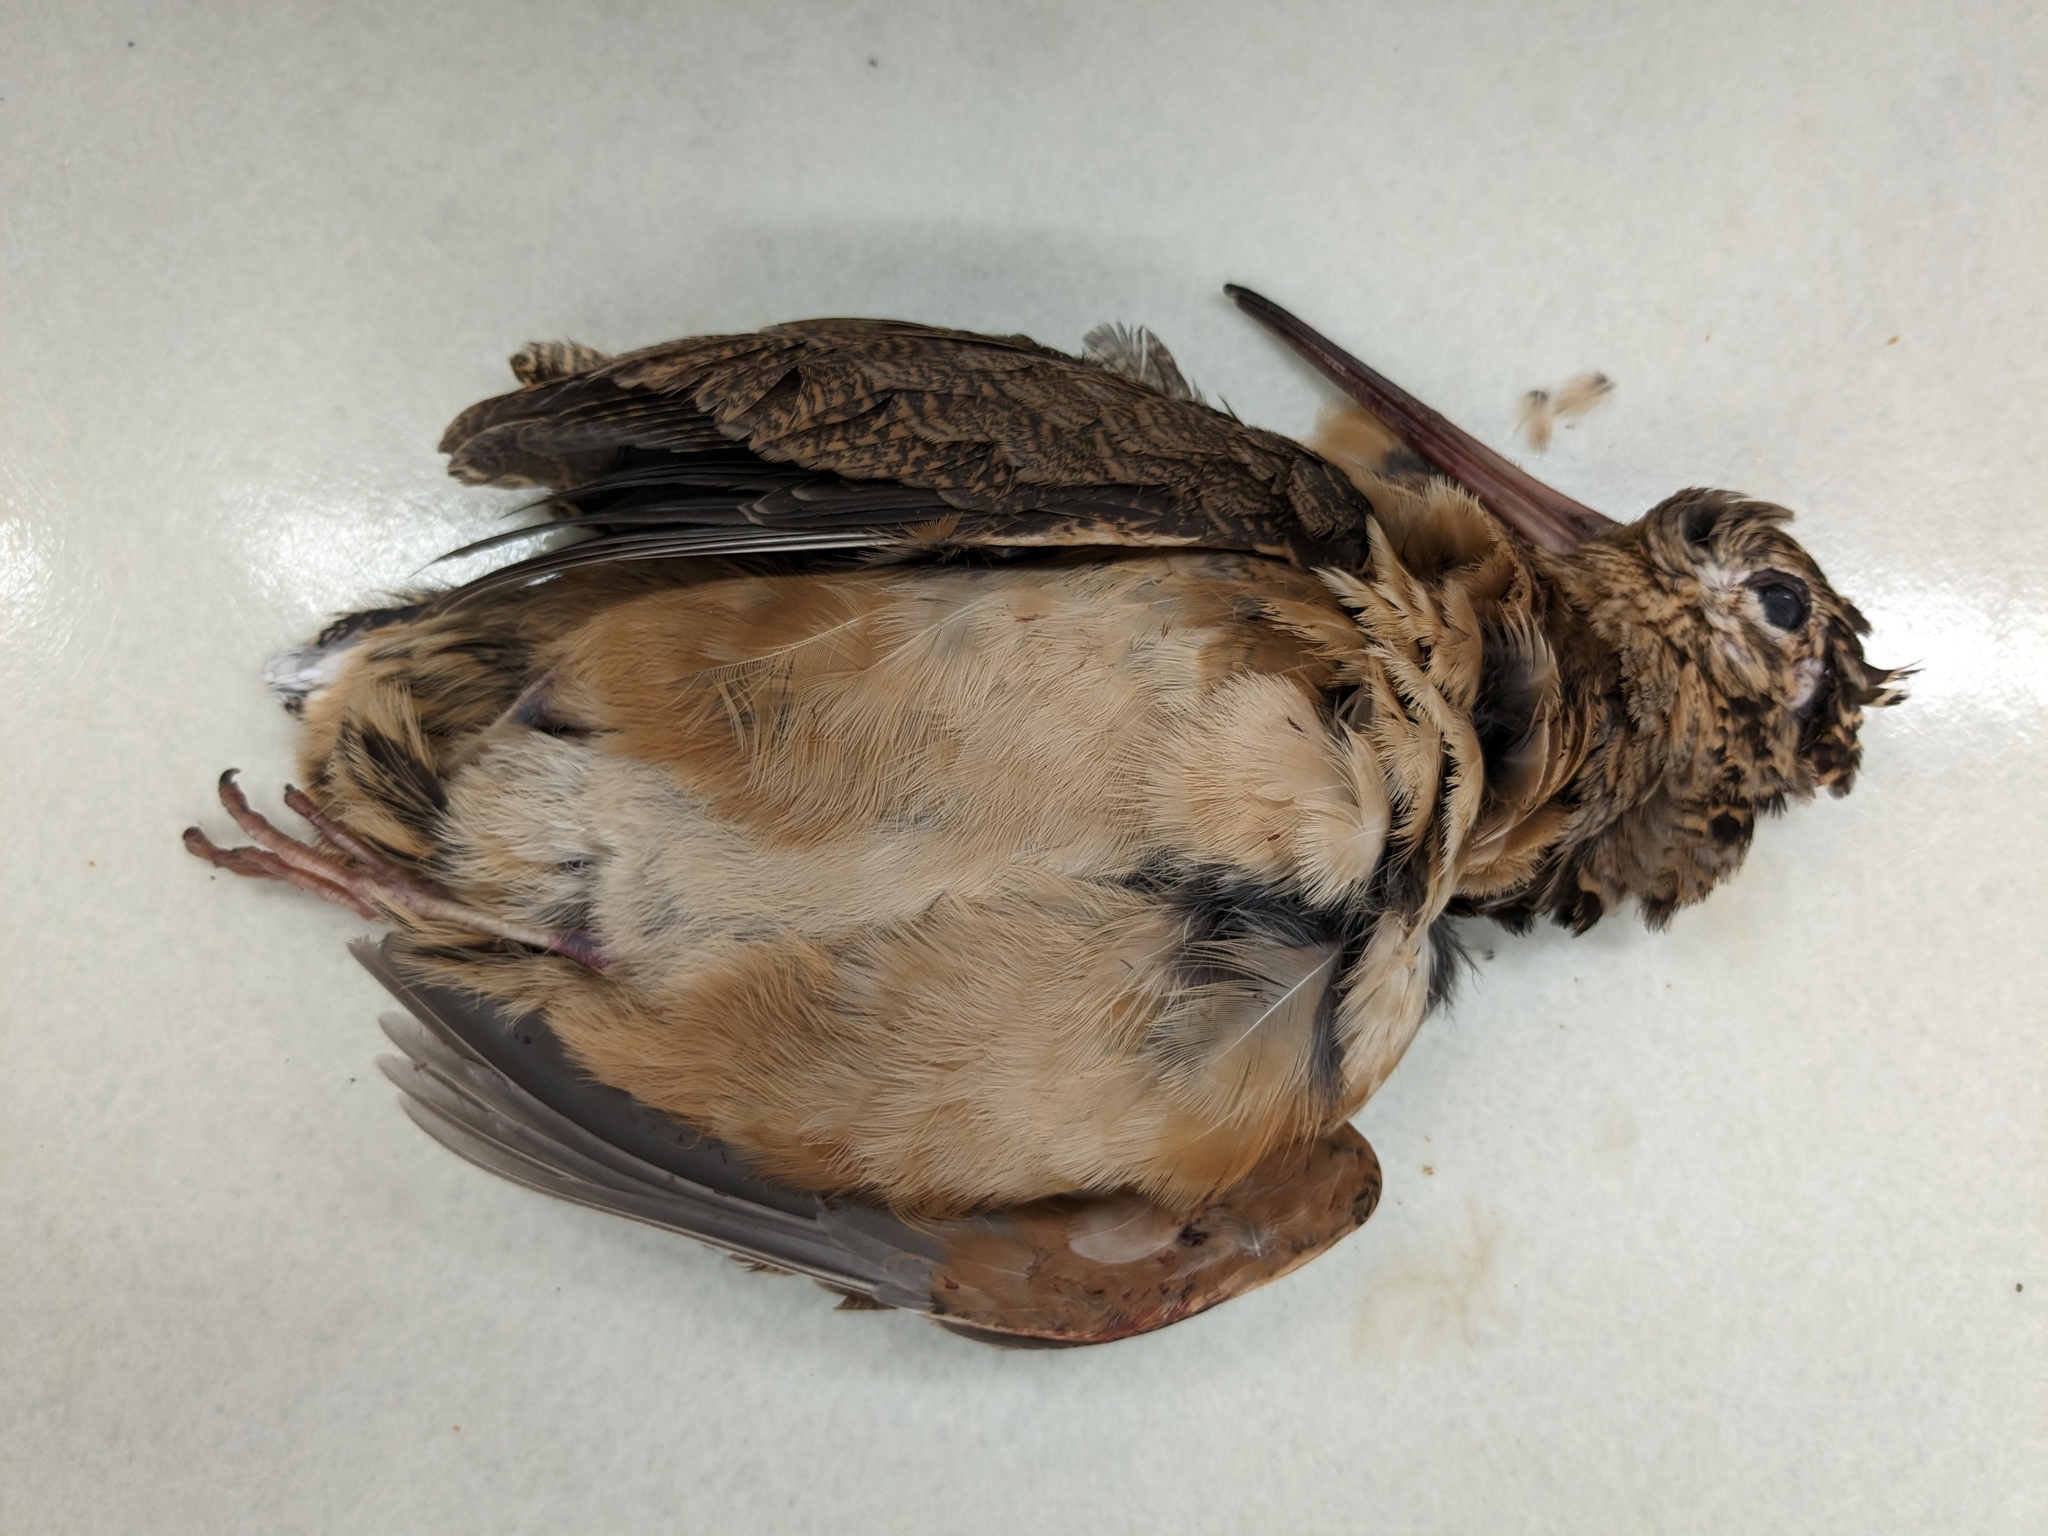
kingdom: Animalia
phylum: Chordata
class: Aves
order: Charadriiformes
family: Scolopacidae
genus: Scolopax
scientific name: Scolopax minor
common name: American woodcock
